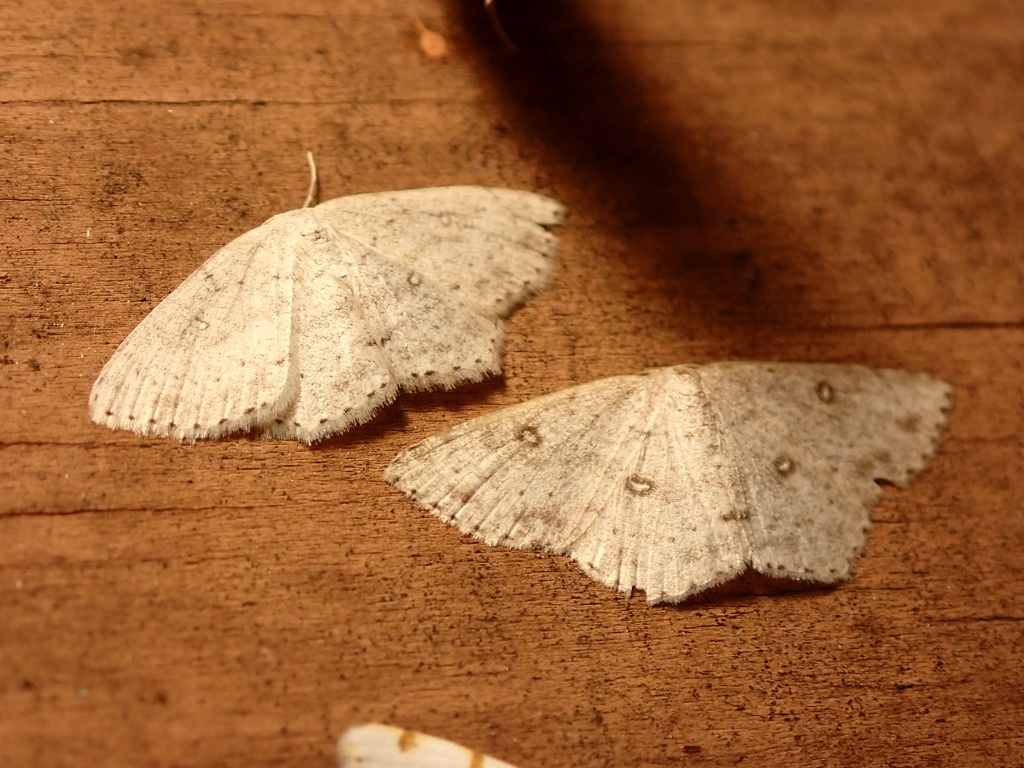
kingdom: Animalia
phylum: Arthropoda
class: Insecta
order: Lepidoptera
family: Geometridae
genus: Cyclophora
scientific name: Cyclophora pendulinaria
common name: Sweet fern geometer
